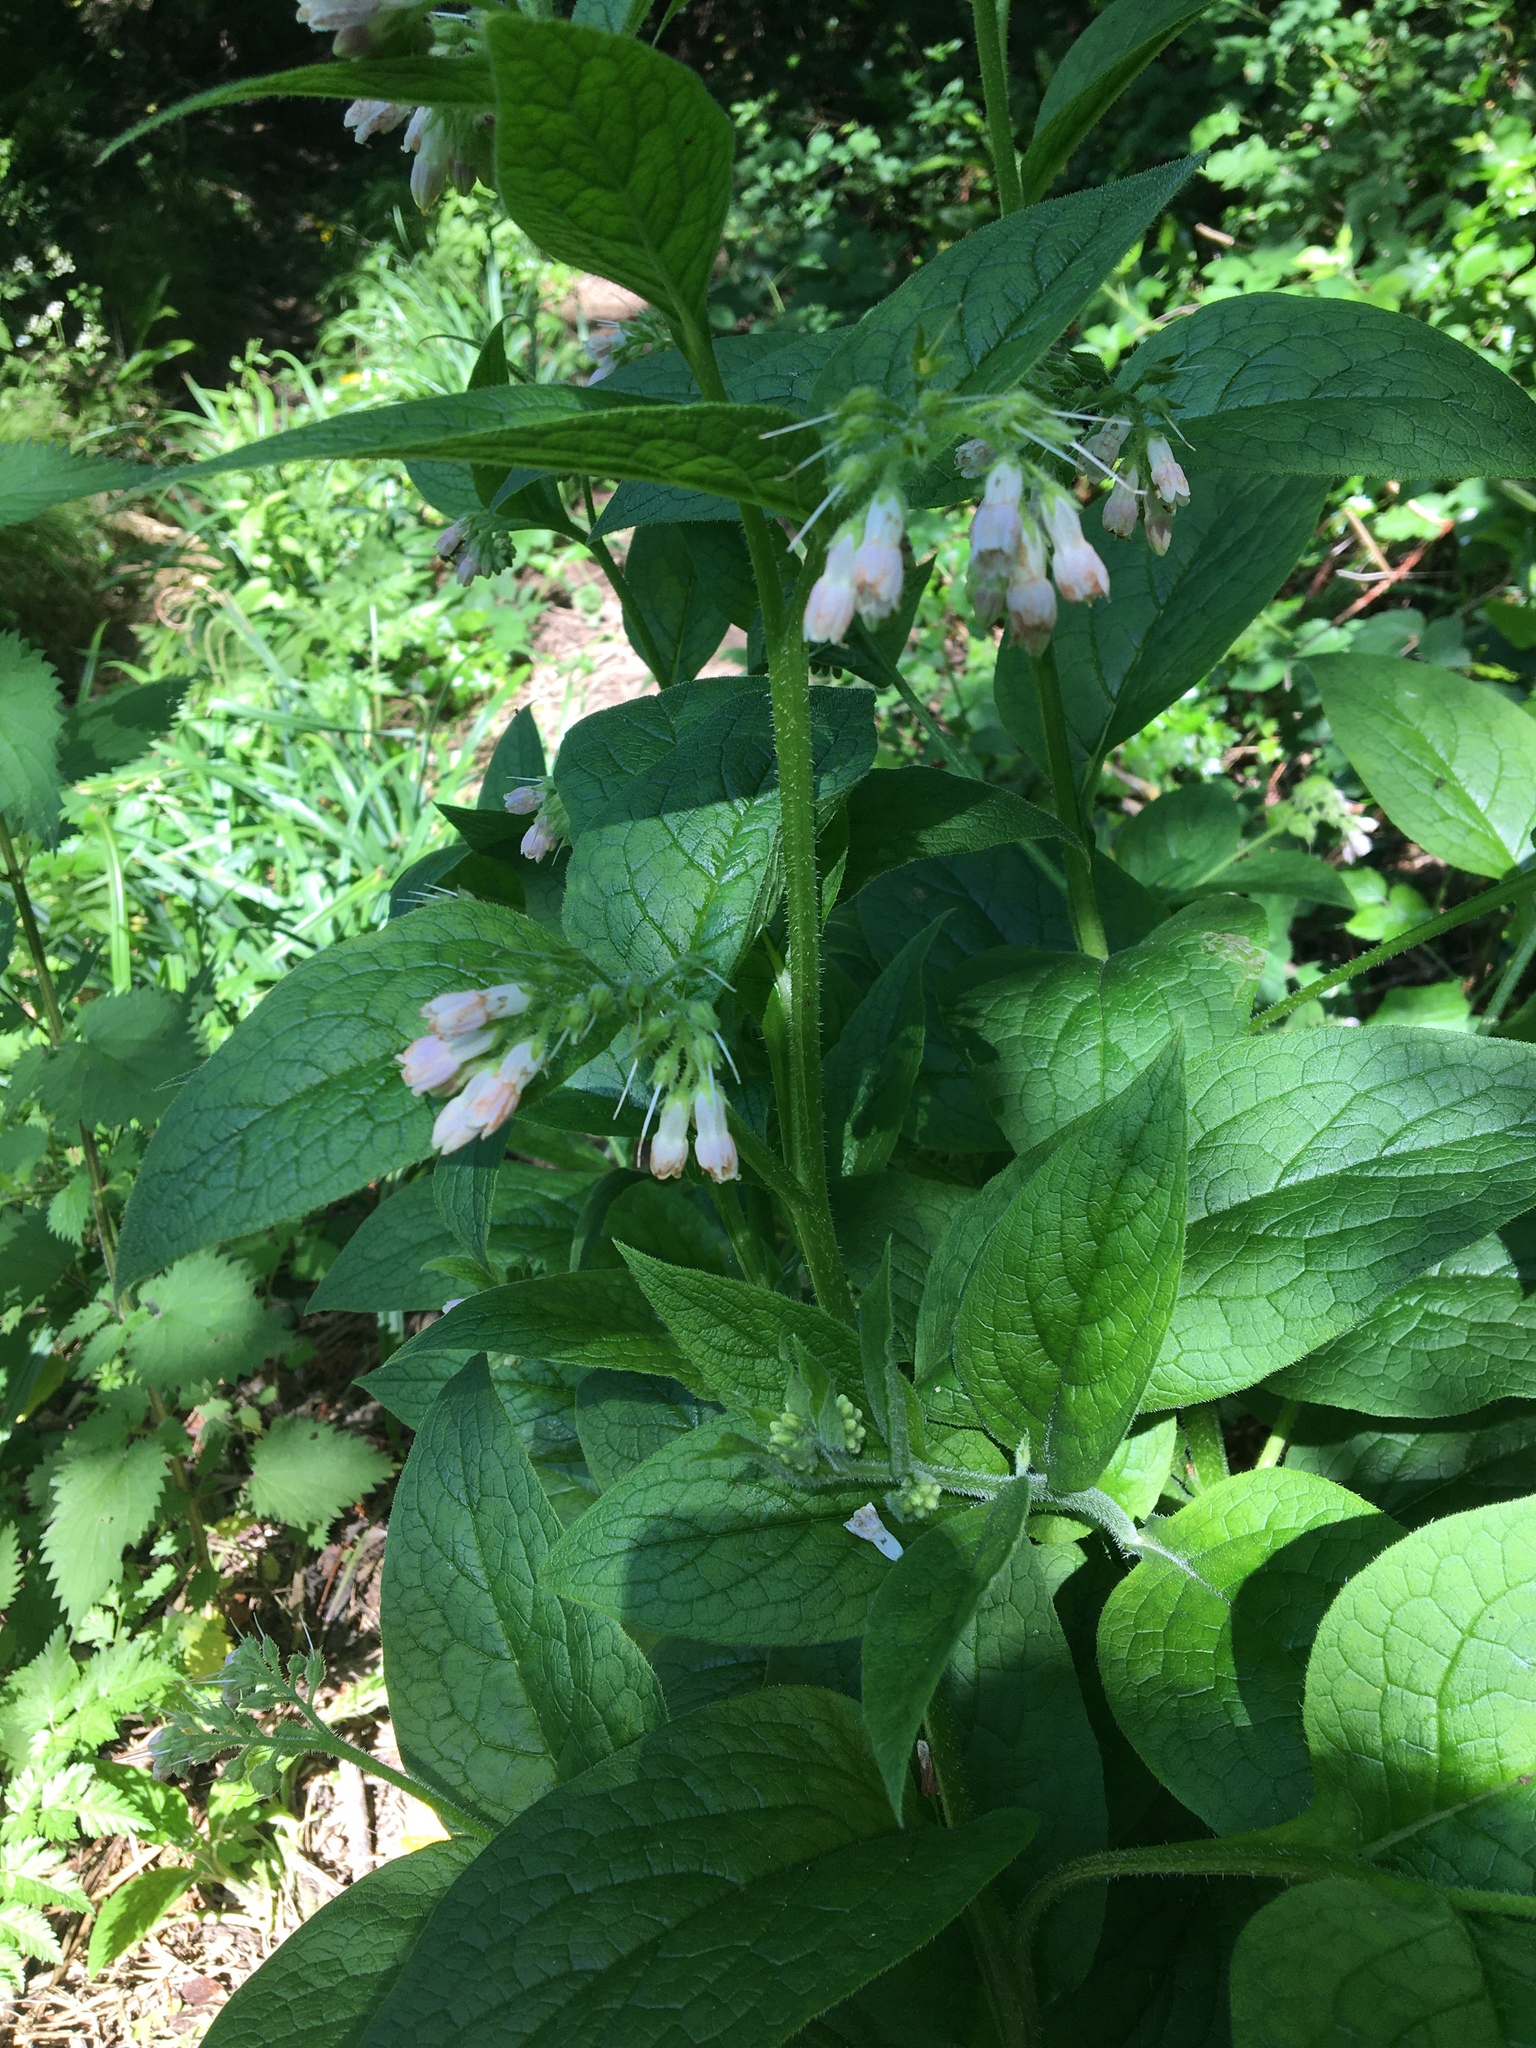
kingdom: Plantae
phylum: Tracheophyta
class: Magnoliopsida
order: Boraginales
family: Boraginaceae
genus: Symphytum
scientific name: Symphytum officinale
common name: Common comfrey
